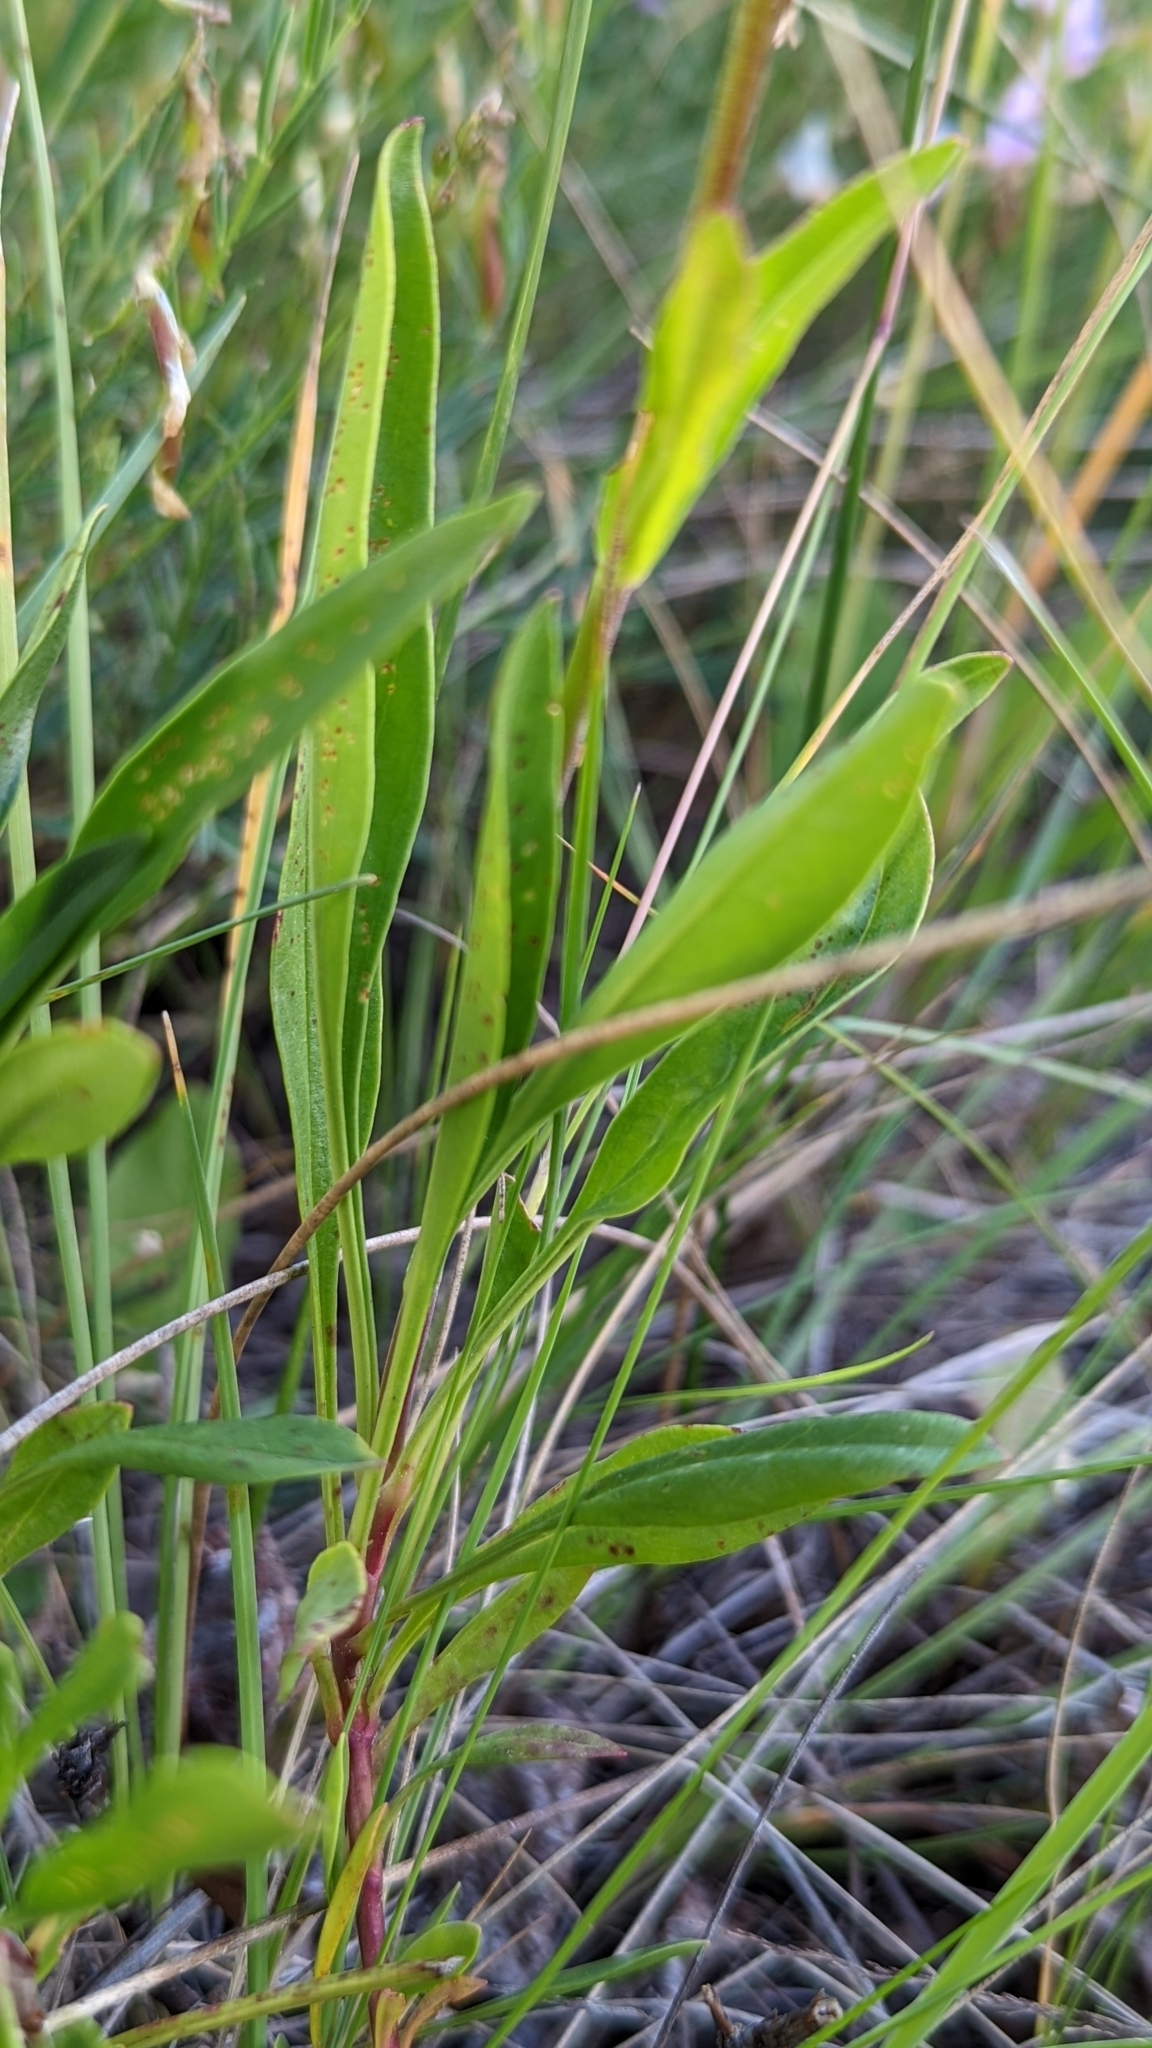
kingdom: Plantae
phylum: Tracheophyta
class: Magnoliopsida
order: Lamiales
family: Plantaginaceae
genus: Penstemon
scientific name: Penstemon procerus
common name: Small-flower penstemon
